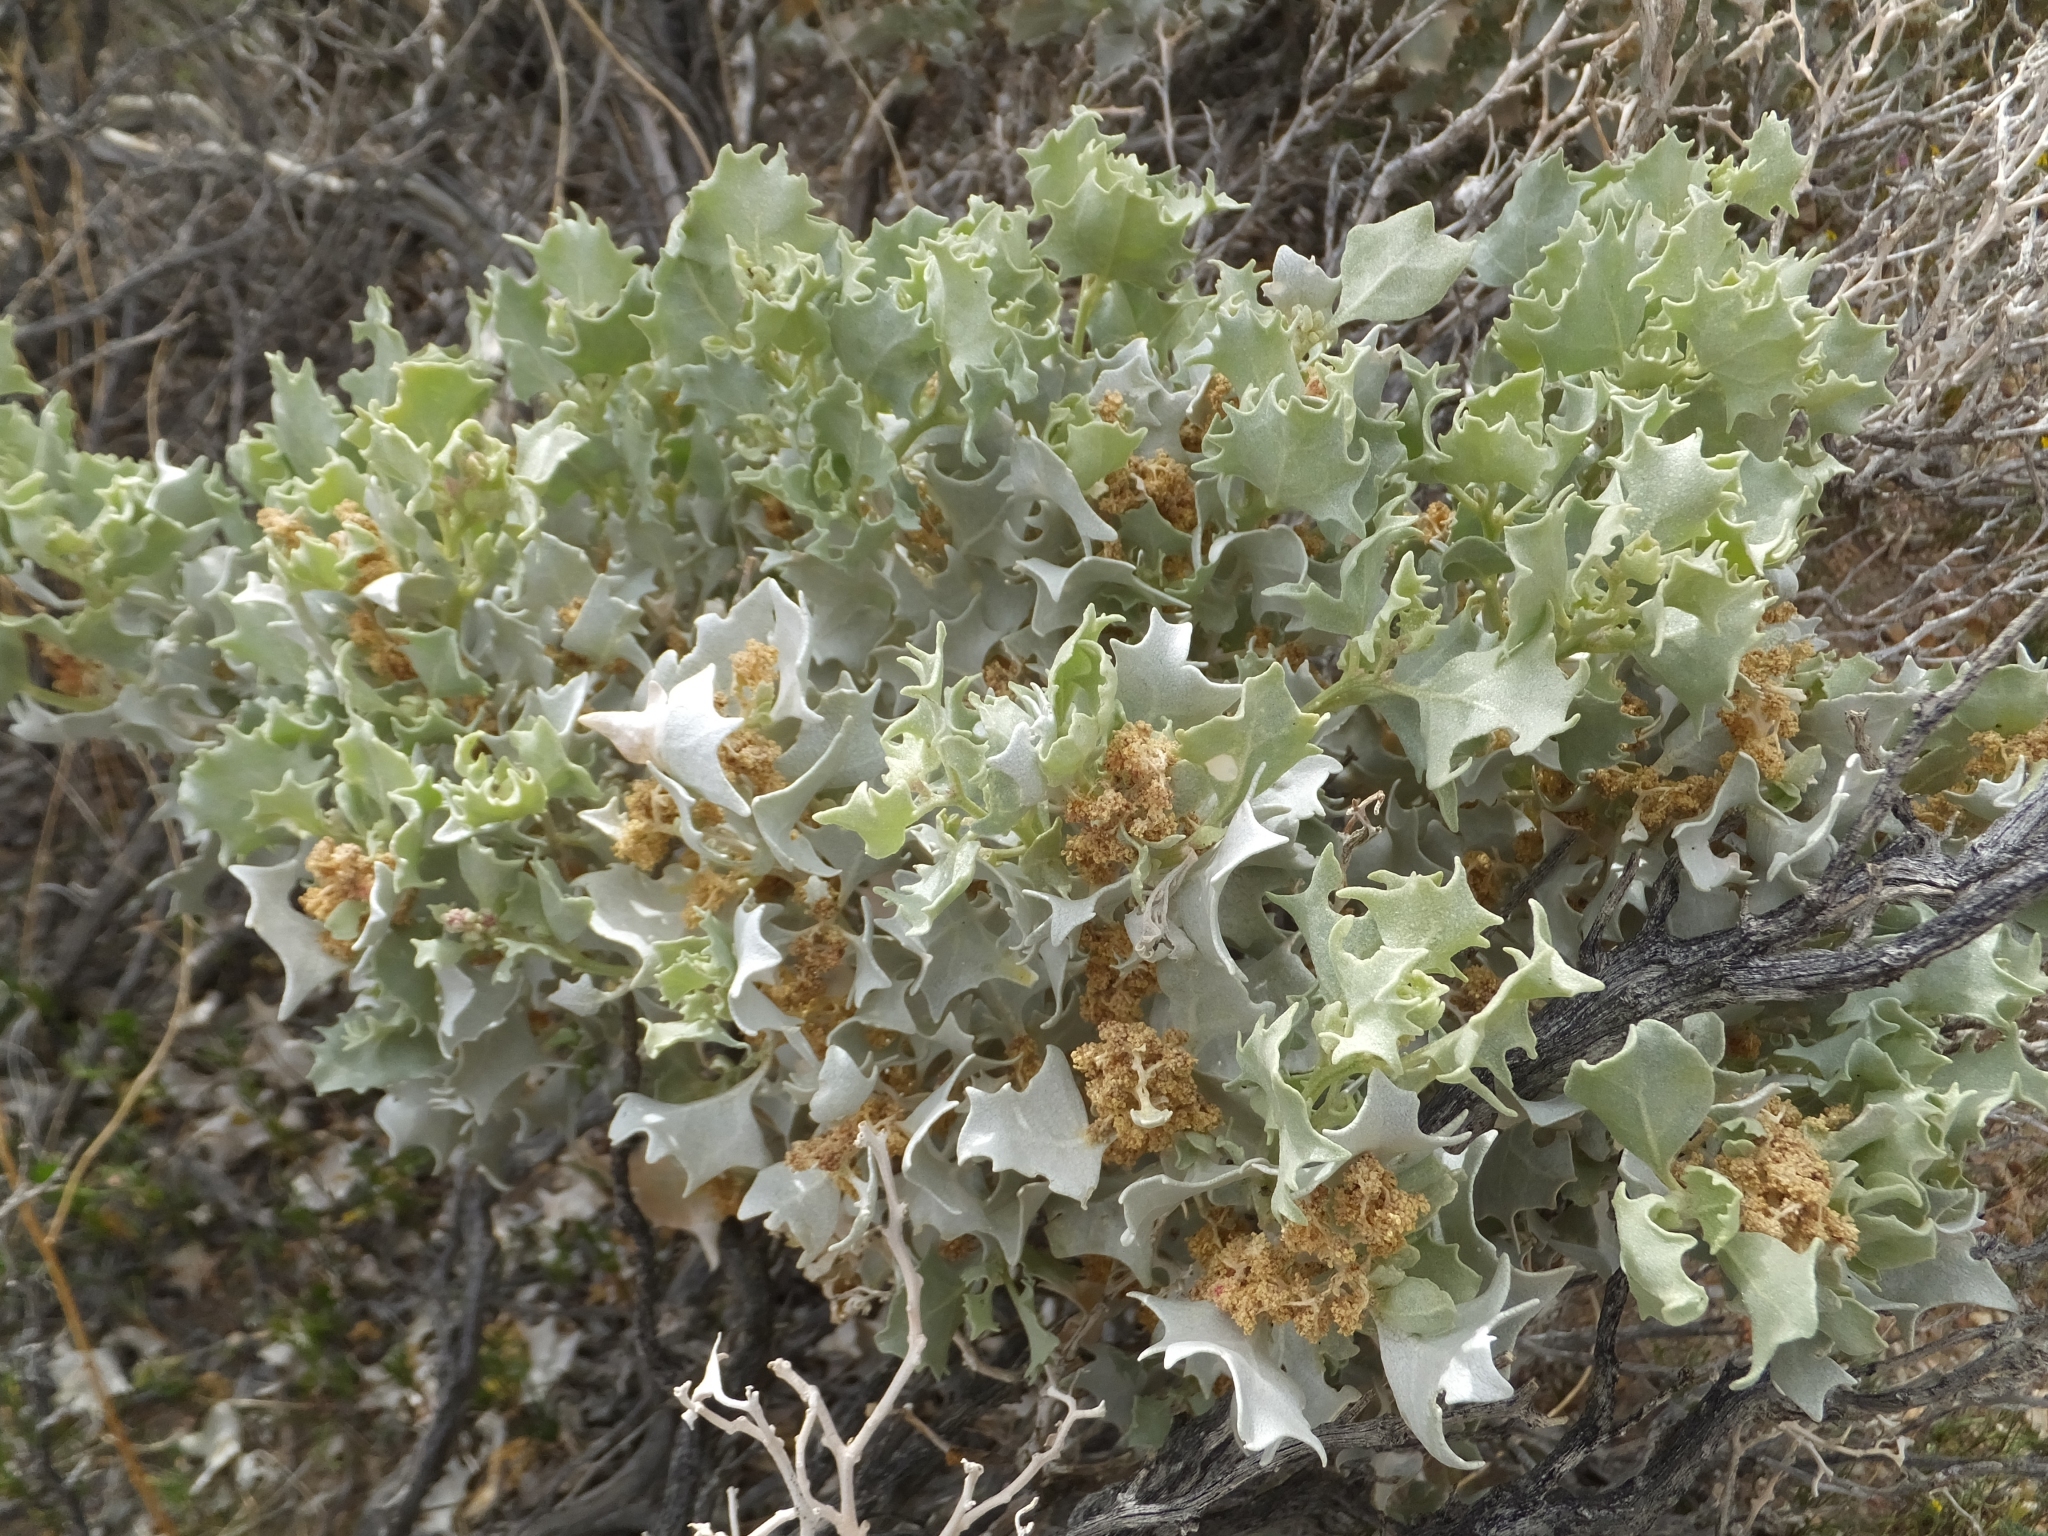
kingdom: Plantae
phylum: Tracheophyta
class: Magnoliopsida
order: Caryophyllales
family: Amaranthaceae
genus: Atriplex
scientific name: Atriplex hymenelytra
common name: Desert-holly
